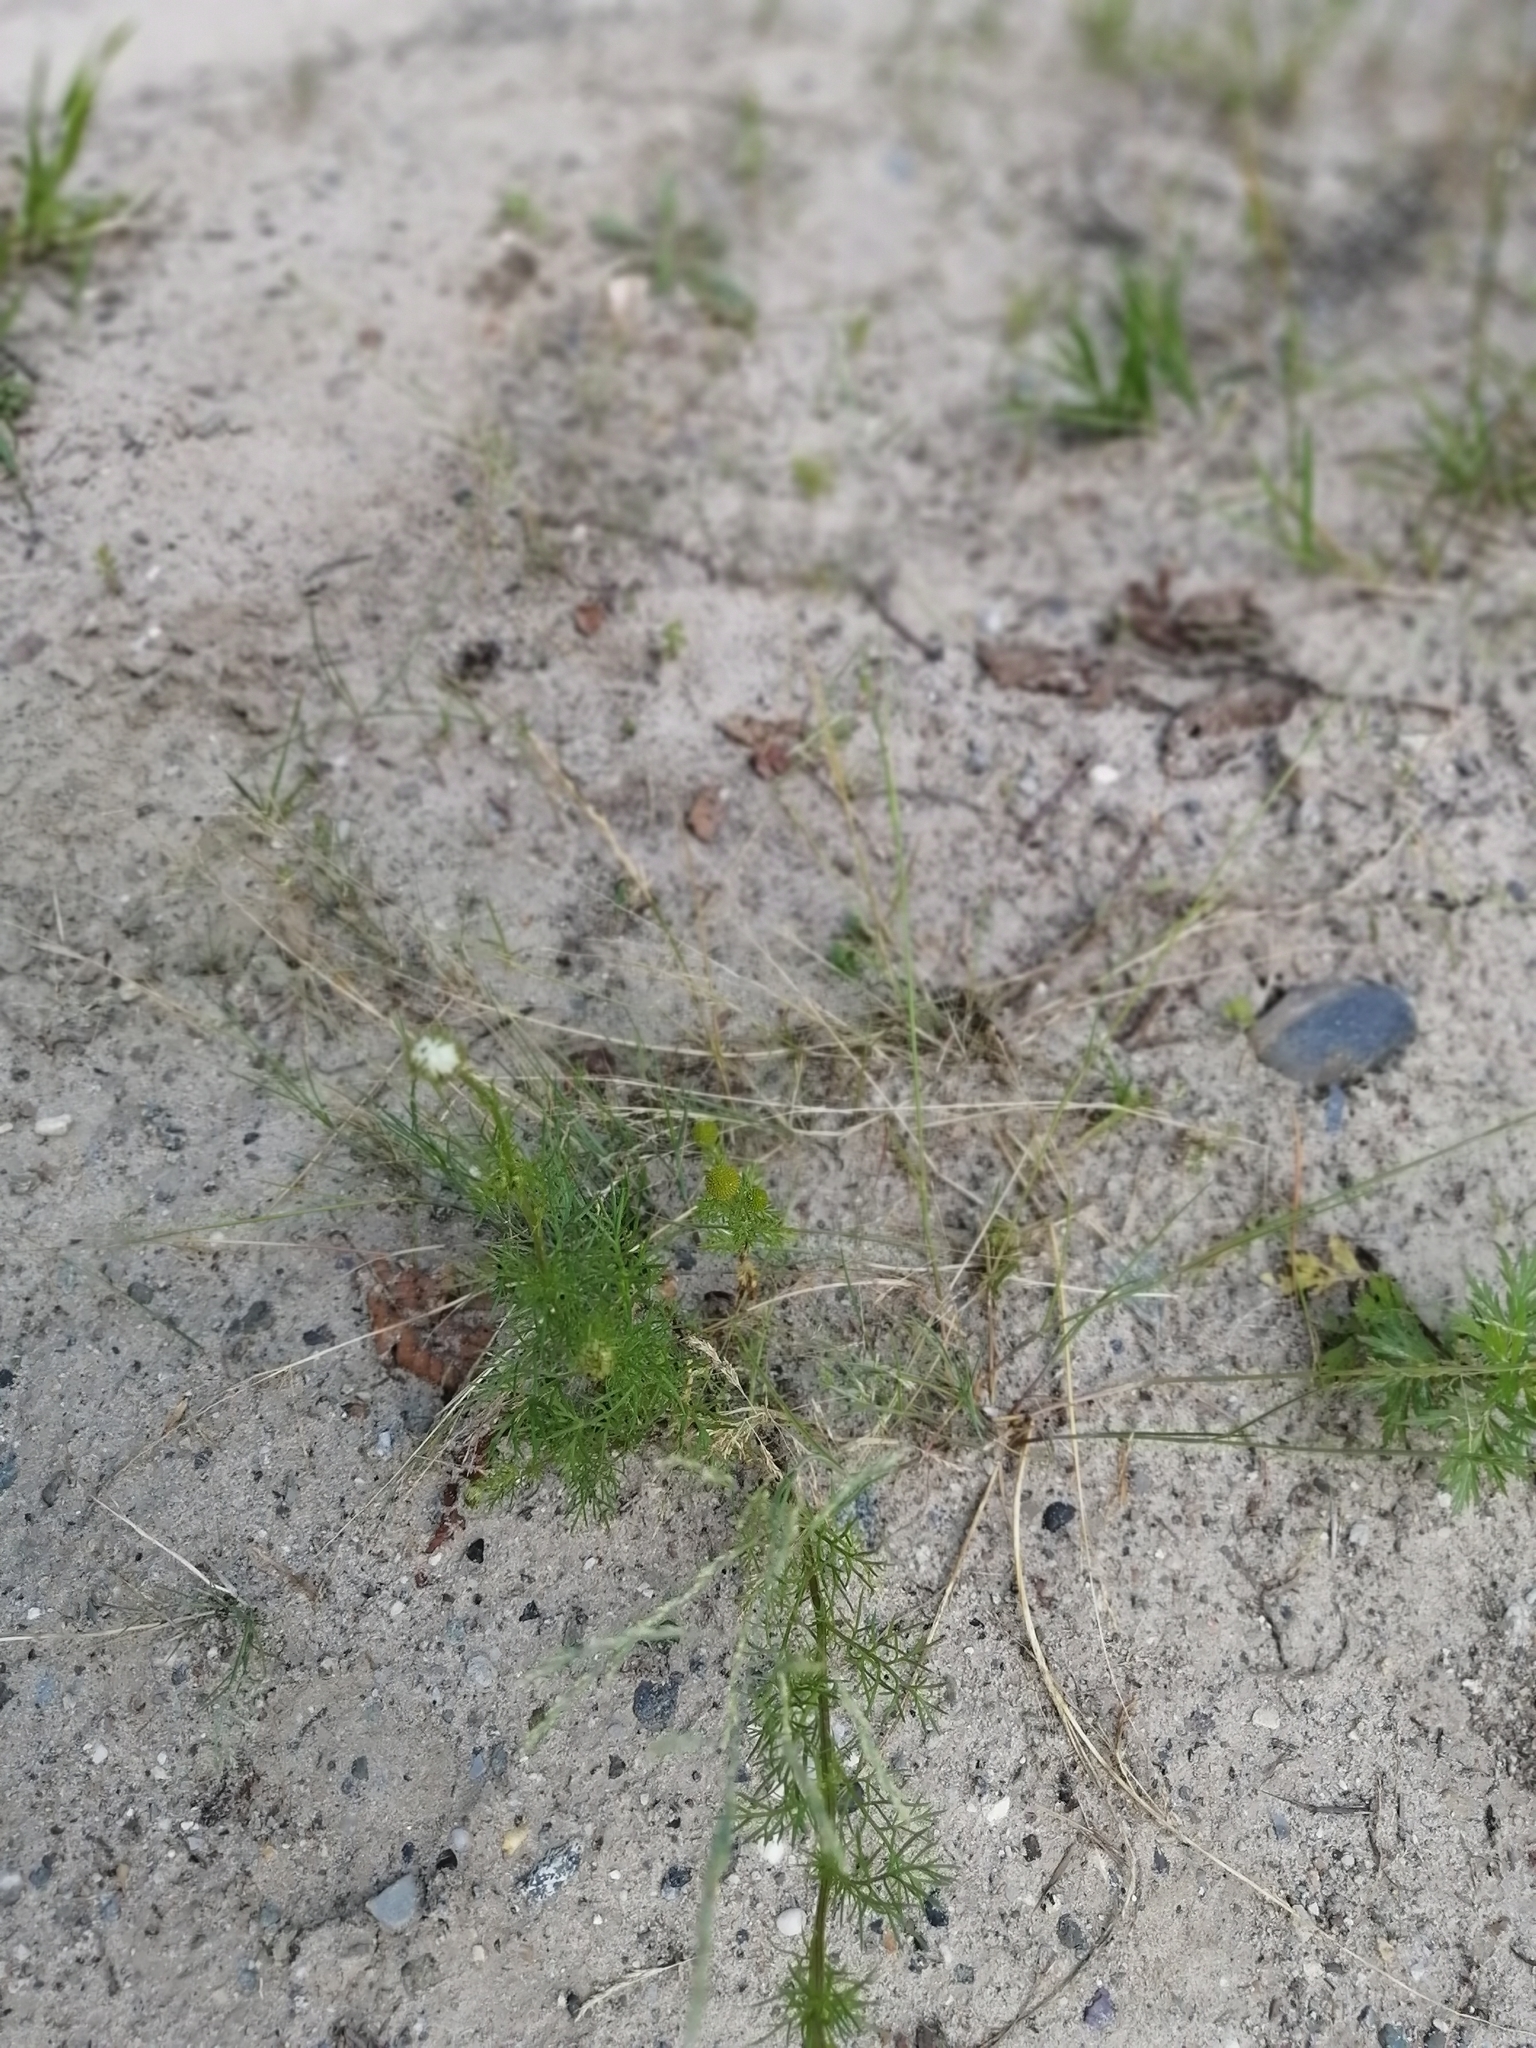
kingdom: Plantae
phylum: Tracheophyta
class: Magnoliopsida
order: Asterales
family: Asteraceae
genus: Tripleurospermum
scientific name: Tripleurospermum inodorum
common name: Scentless mayweed
